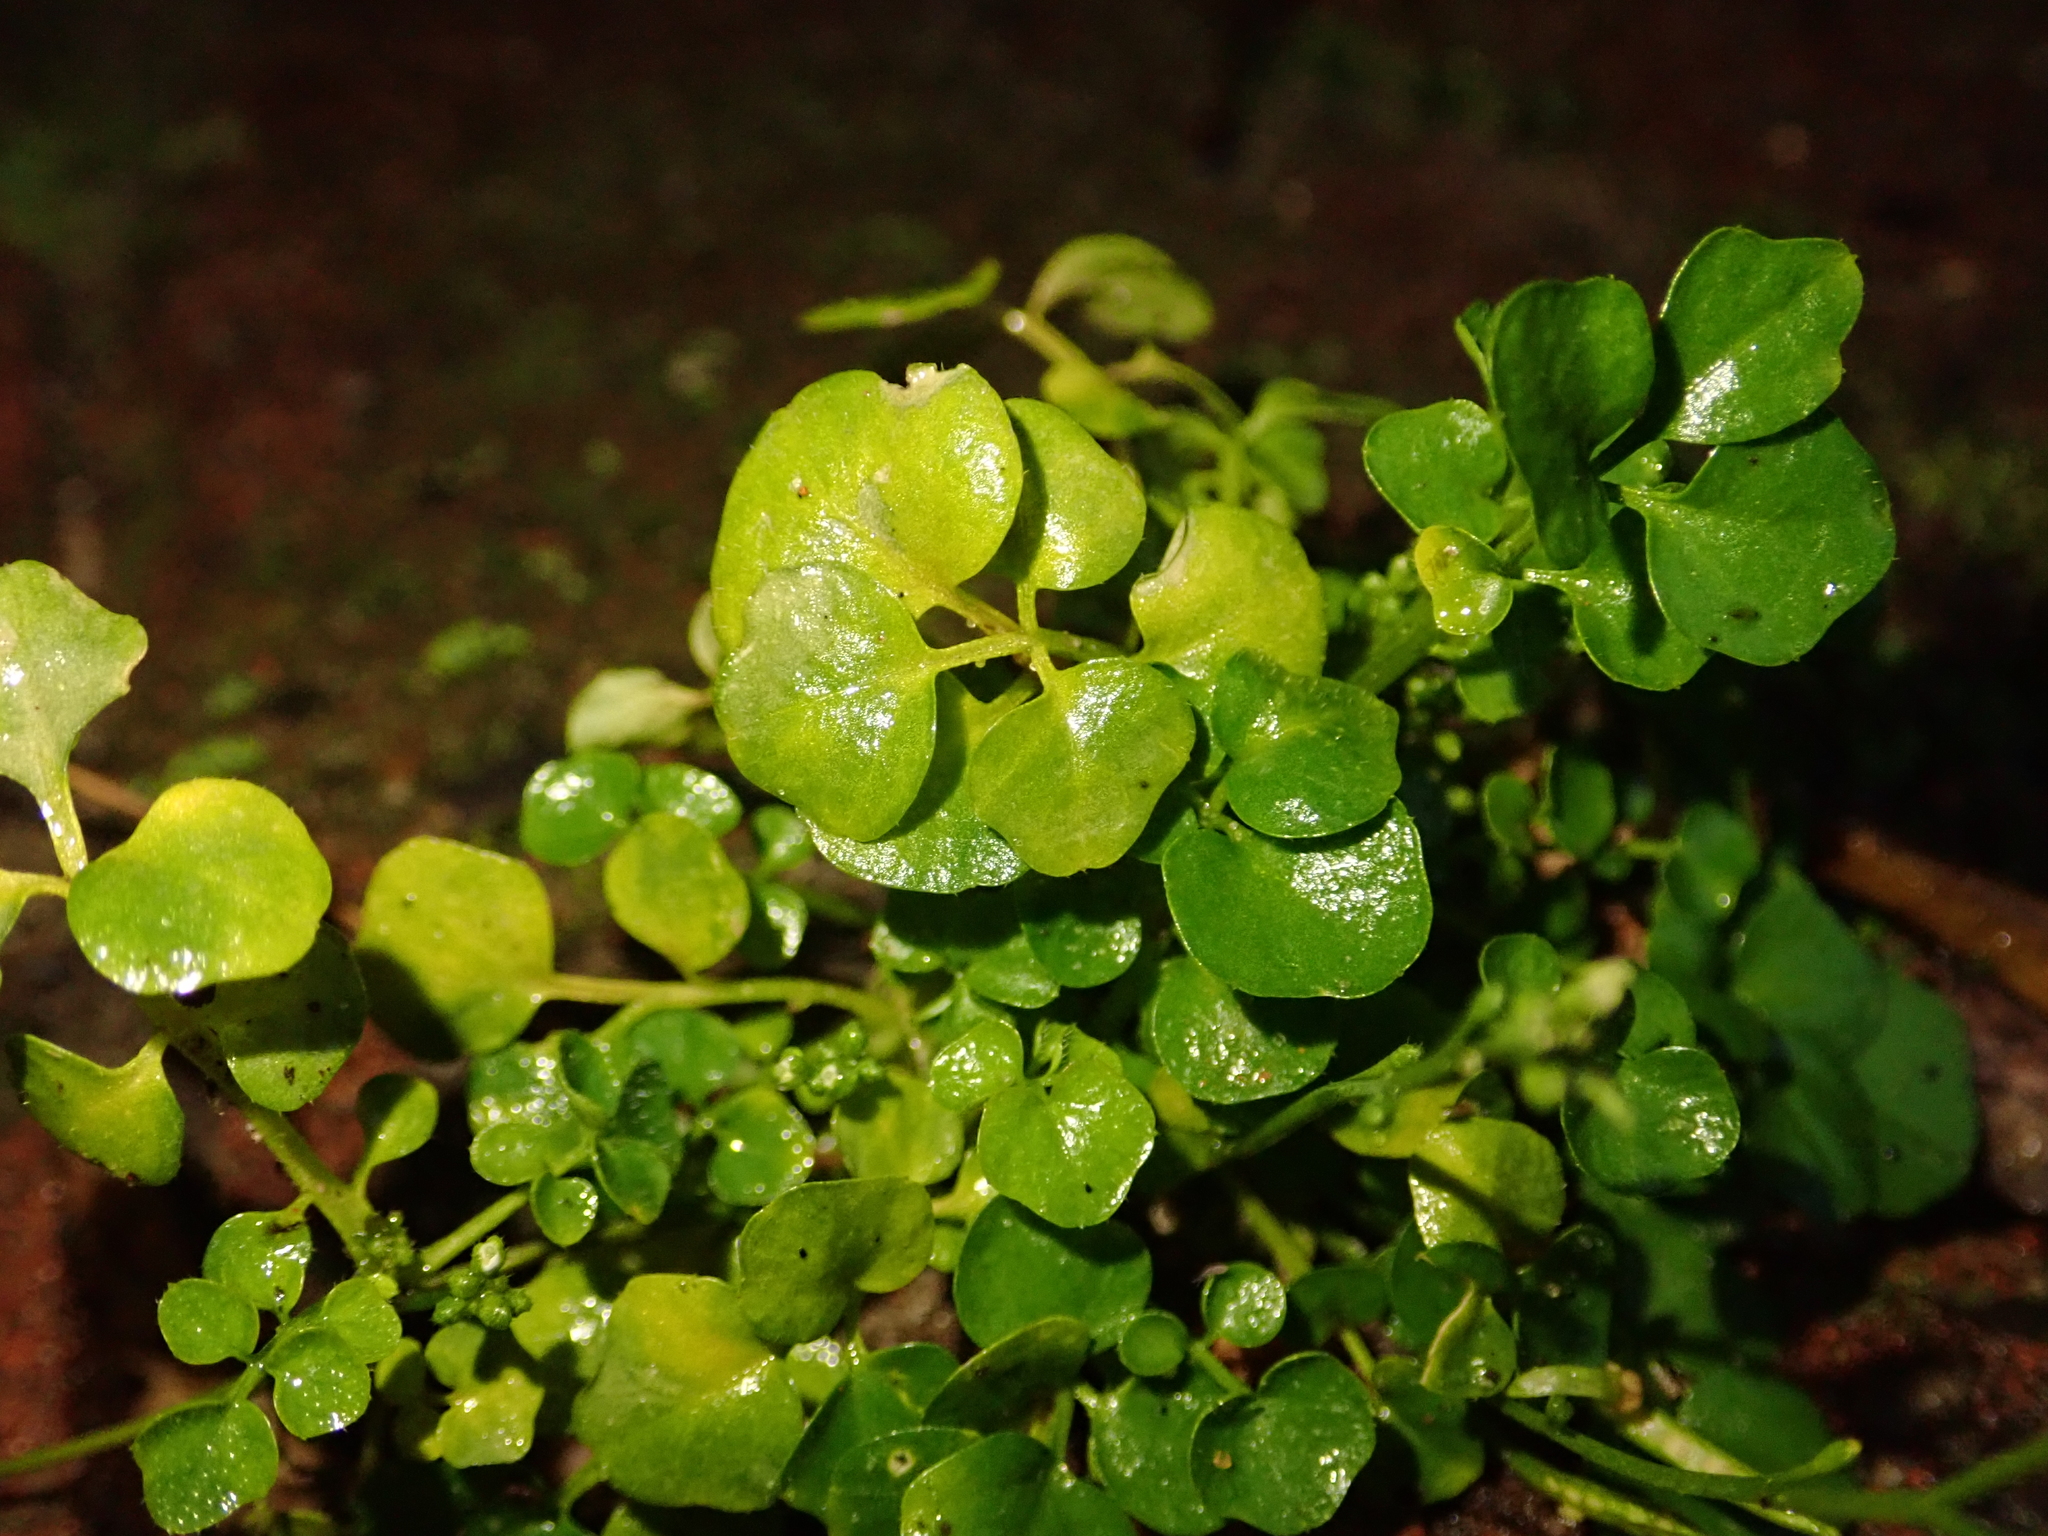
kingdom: Plantae
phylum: Tracheophyta
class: Magnoliopsida
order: Brassicales
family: Brassicaceae
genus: Cardamine
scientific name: Cardamine hirsuta
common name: Hairy bittercress
